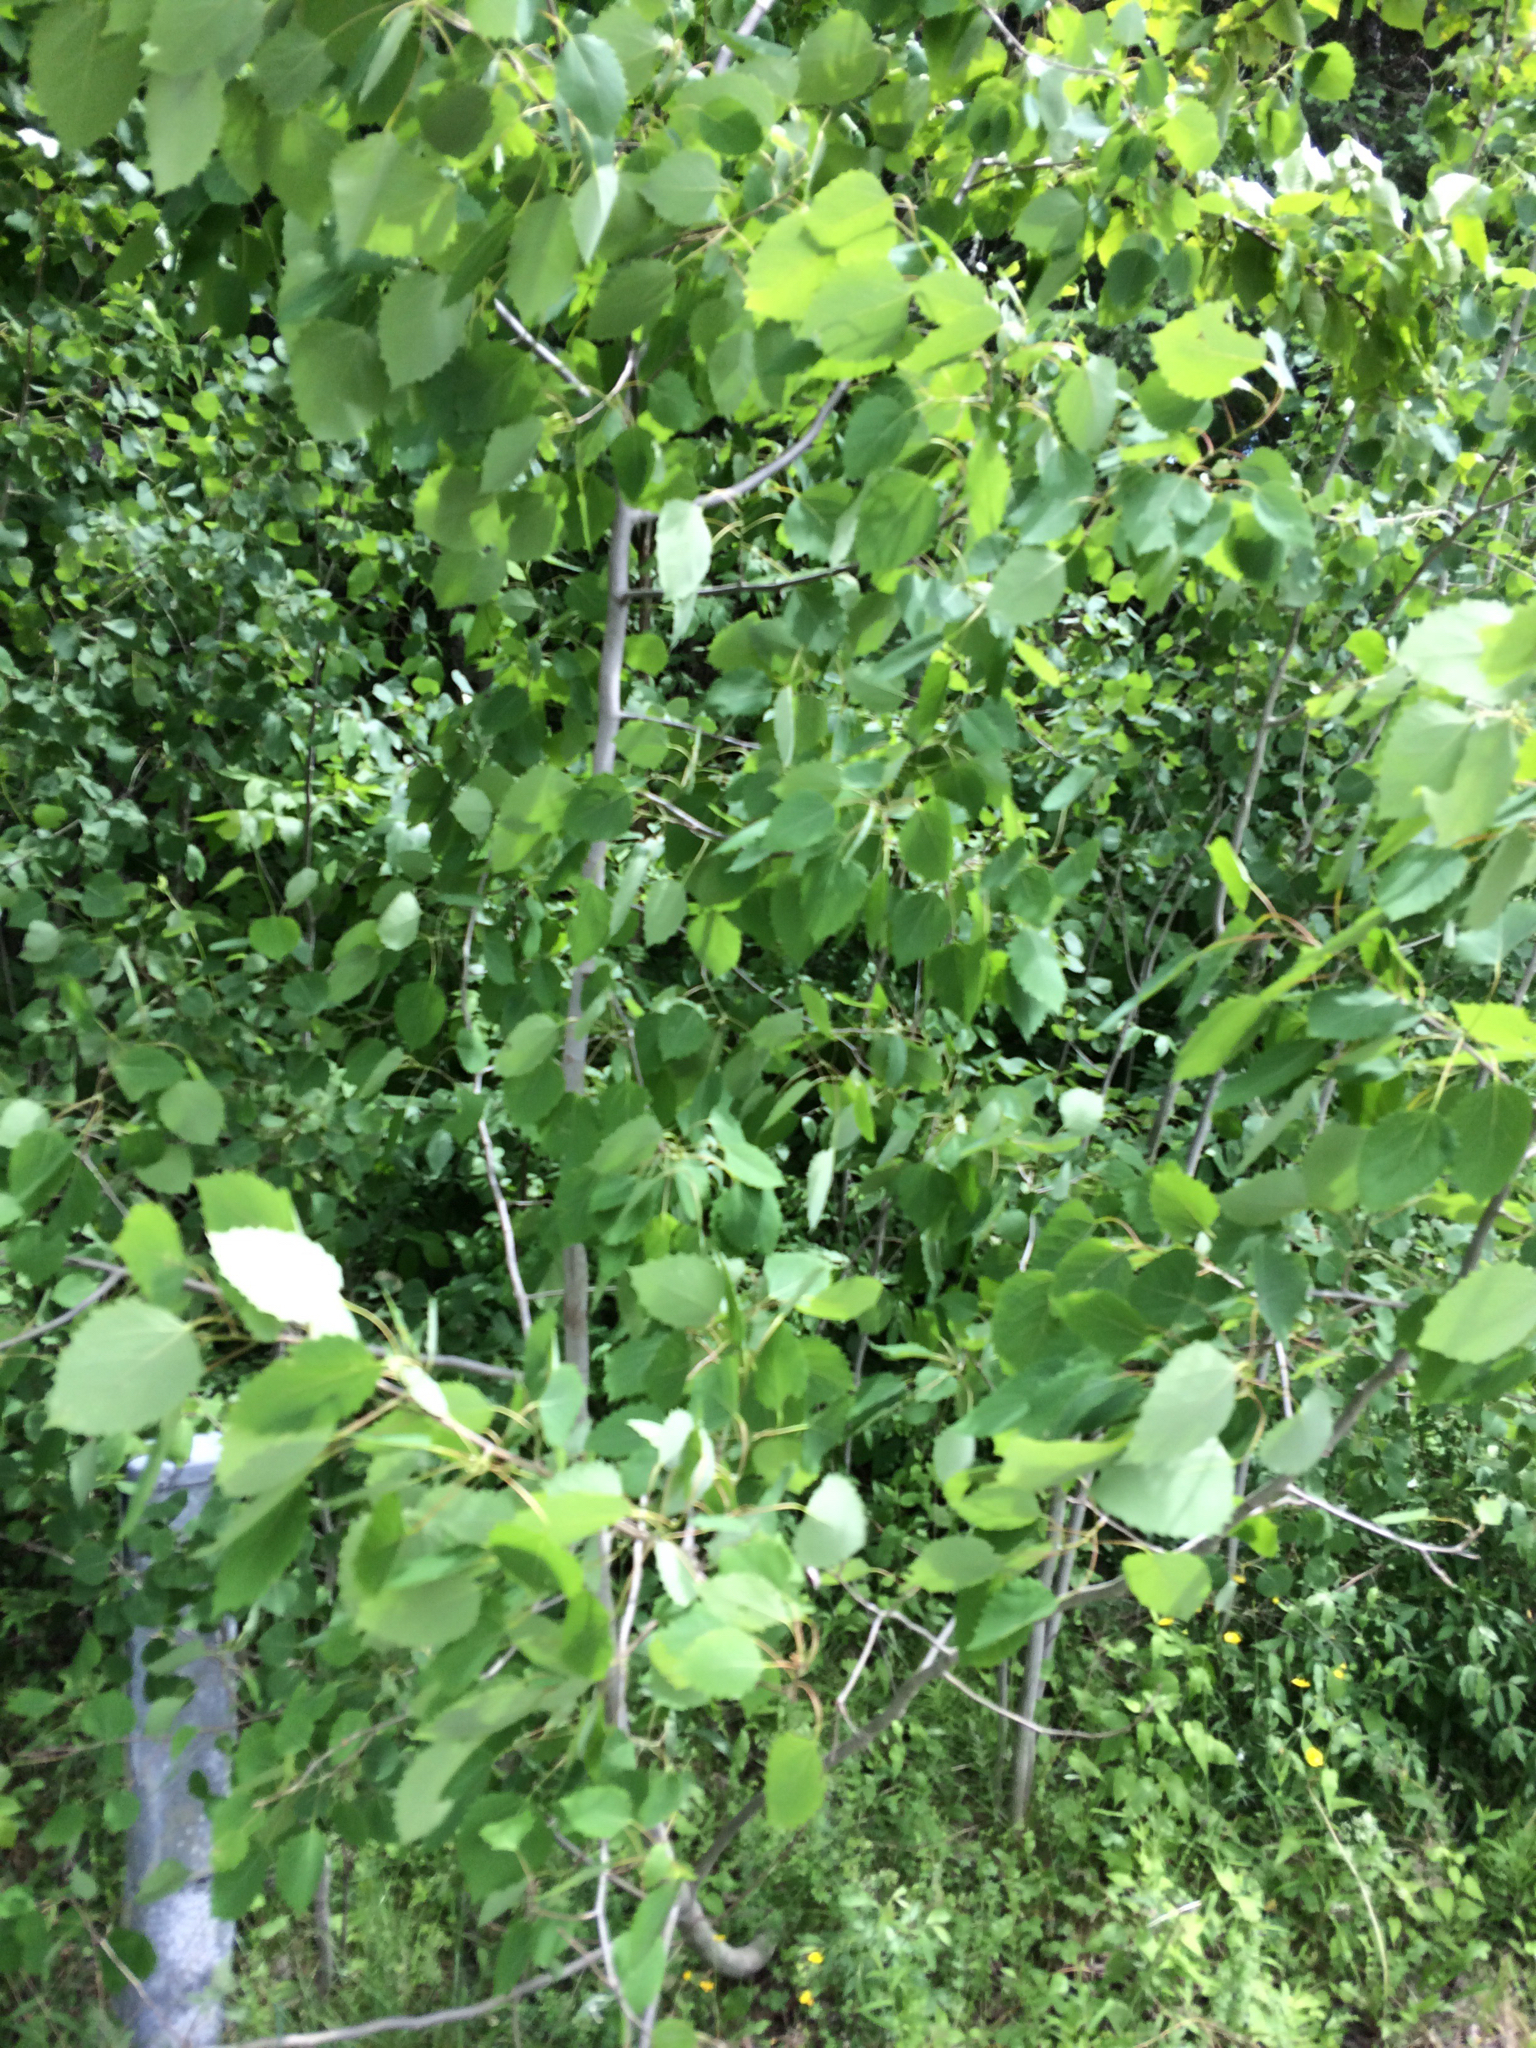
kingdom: Plantae
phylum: Tracheophyta
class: Magnoliopsida
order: Malpighiales
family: Salicaceae
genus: Populus
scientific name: Populus grandidentata
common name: Bigtooth aspen
